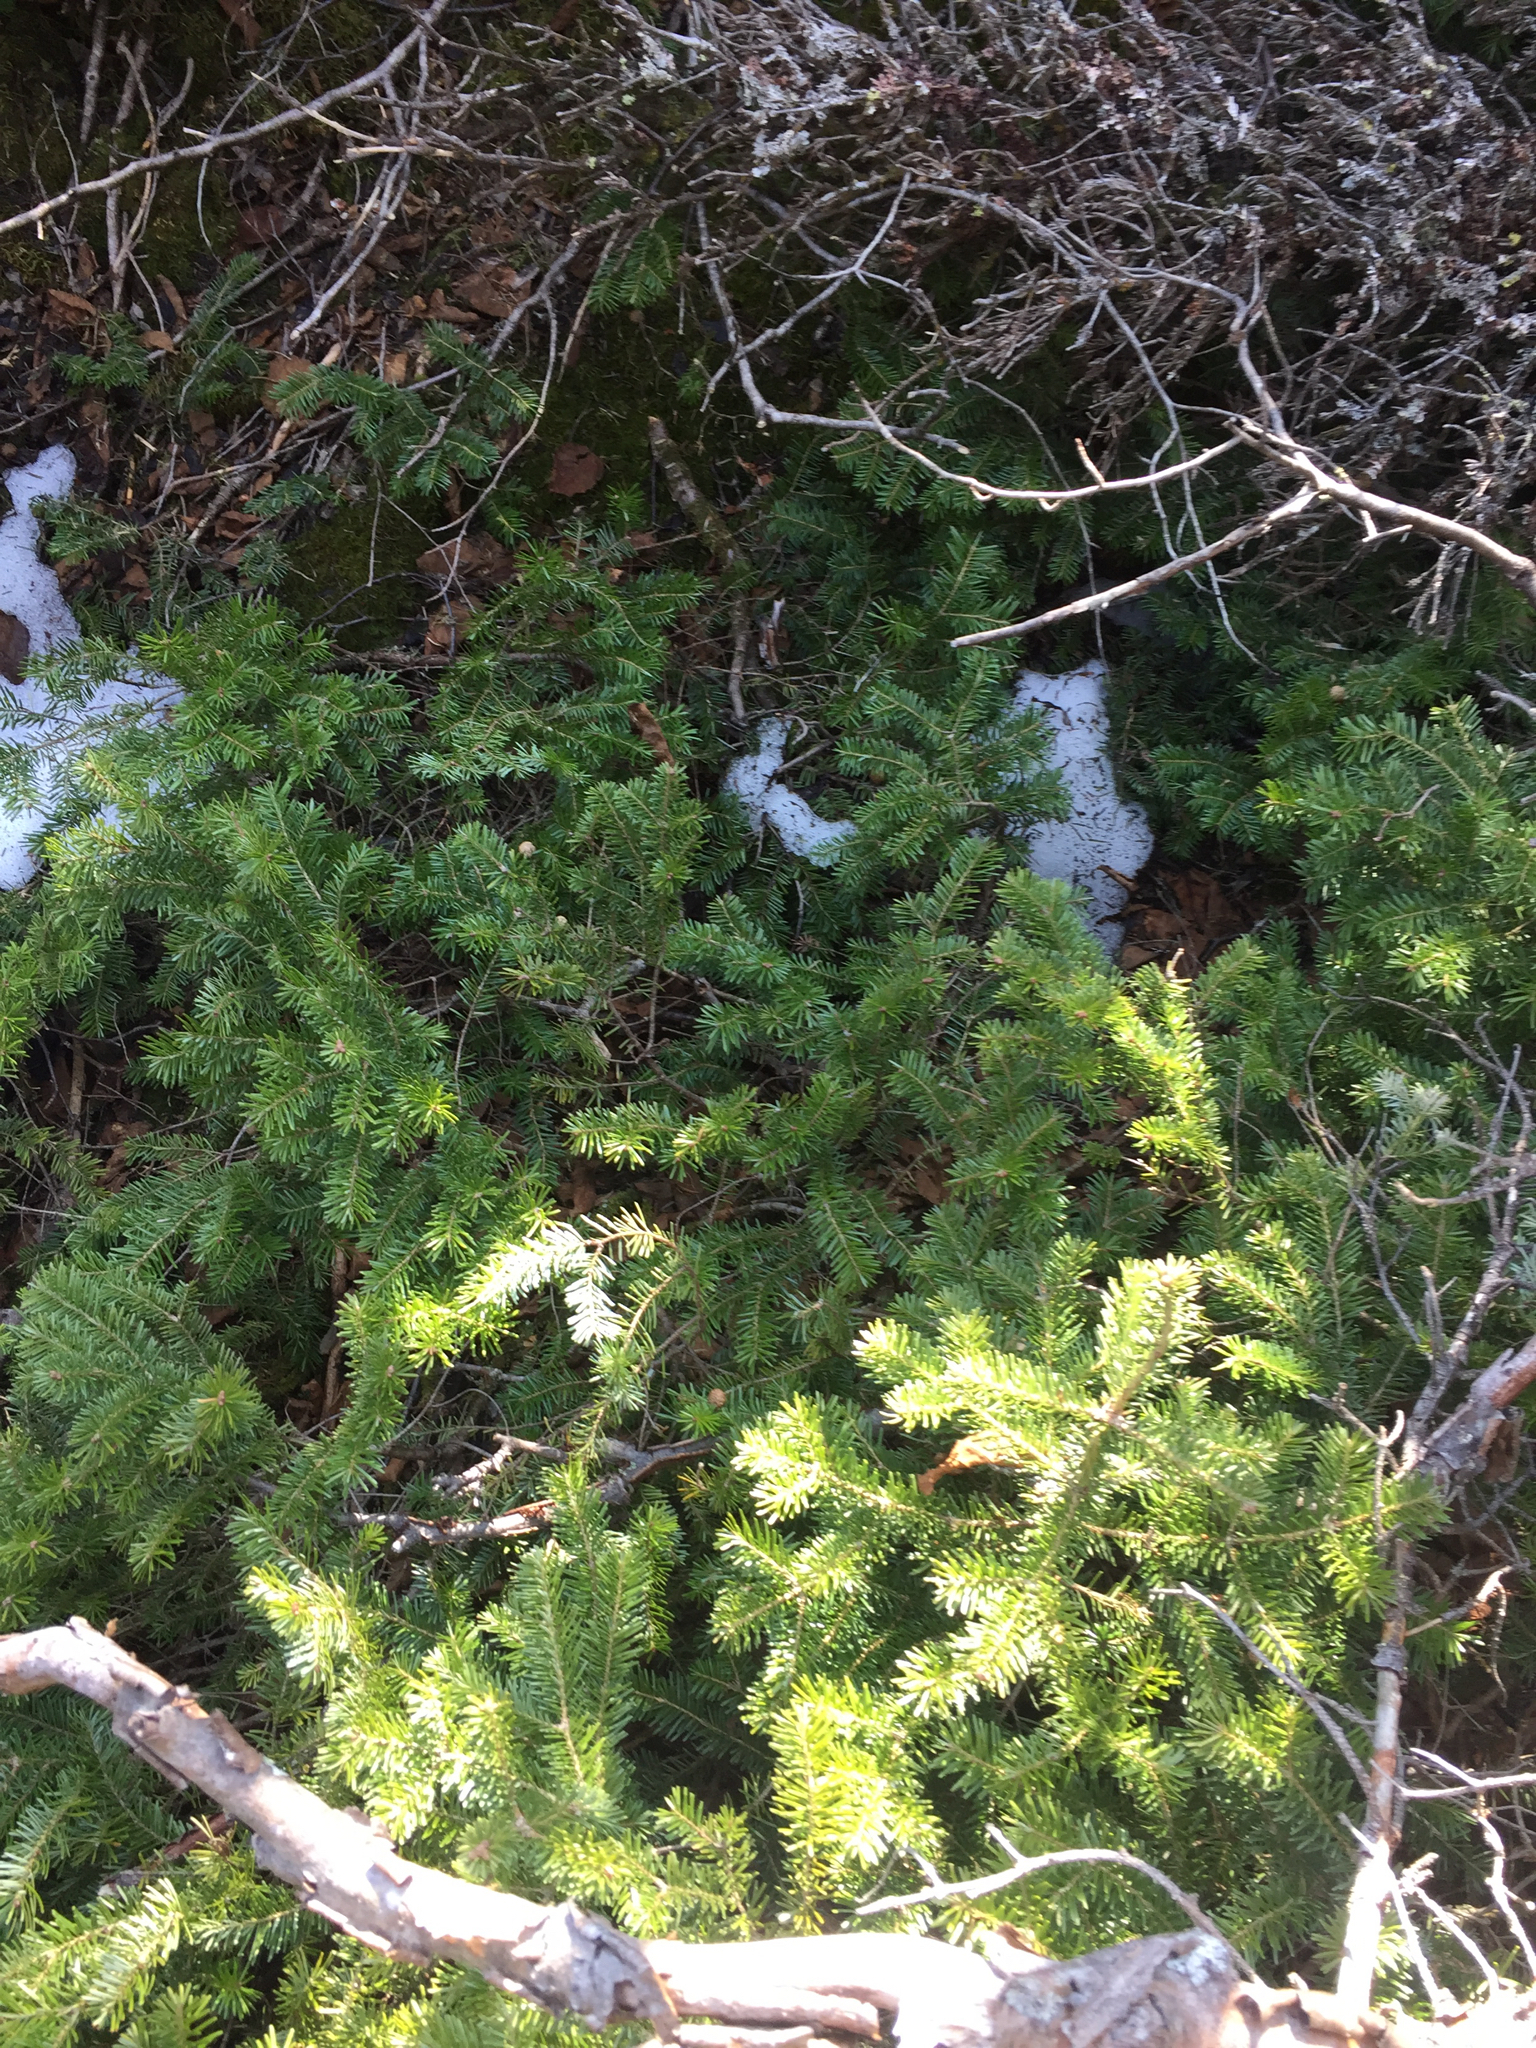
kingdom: Plantae
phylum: Tracheophyta
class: Pinopsida
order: Pinales
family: Pinaceae
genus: Abies
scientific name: Abies balsamea
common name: Balsam fir
